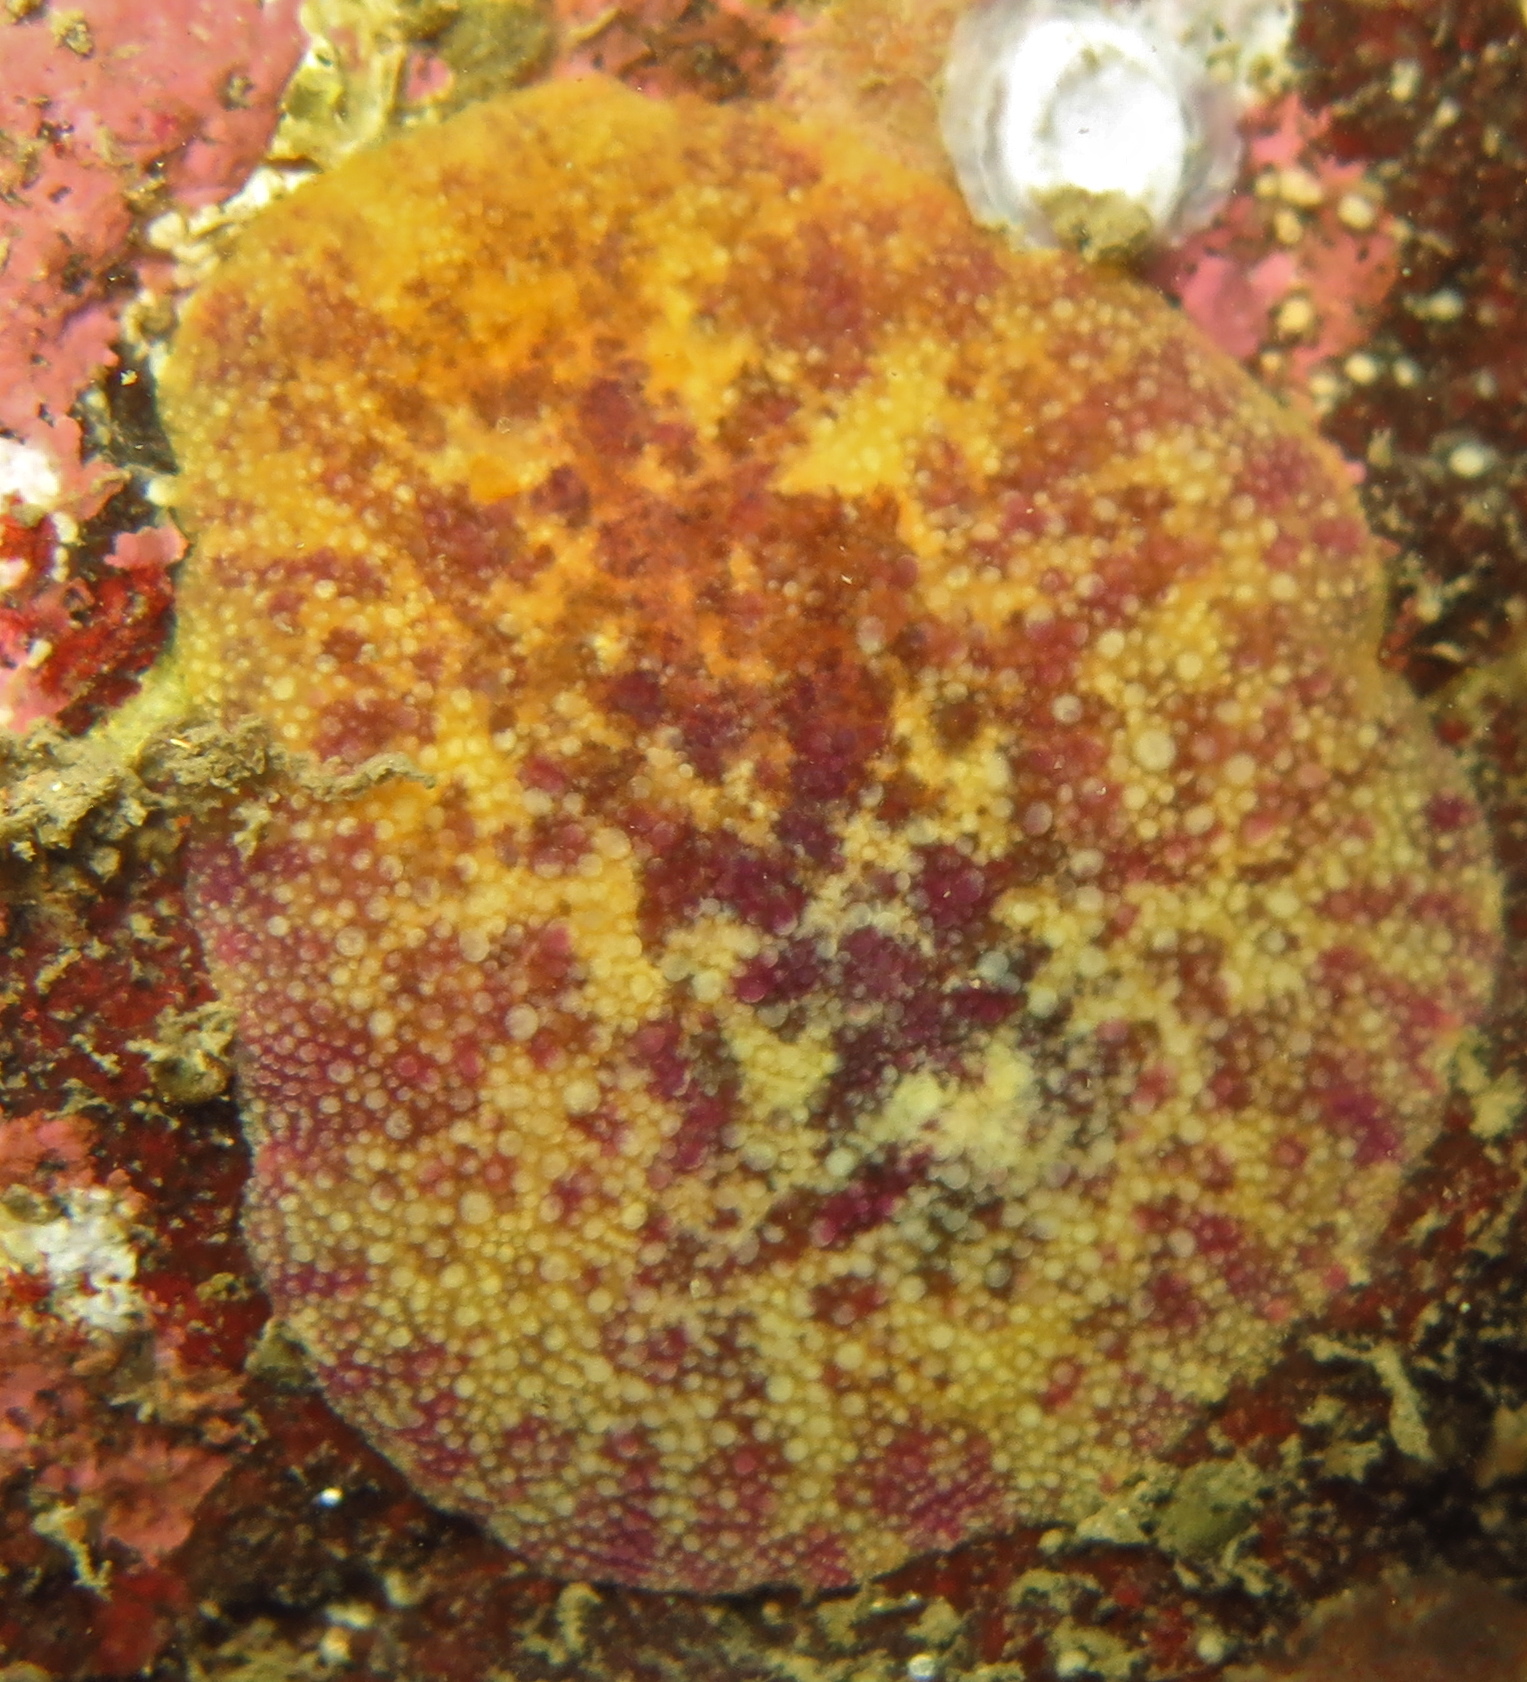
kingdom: Animalia
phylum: Mollusca
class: Gastropoda
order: Nudibranchia
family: Dorididae
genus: Doris
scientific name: Doris pseudoargus
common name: Sea lemon
